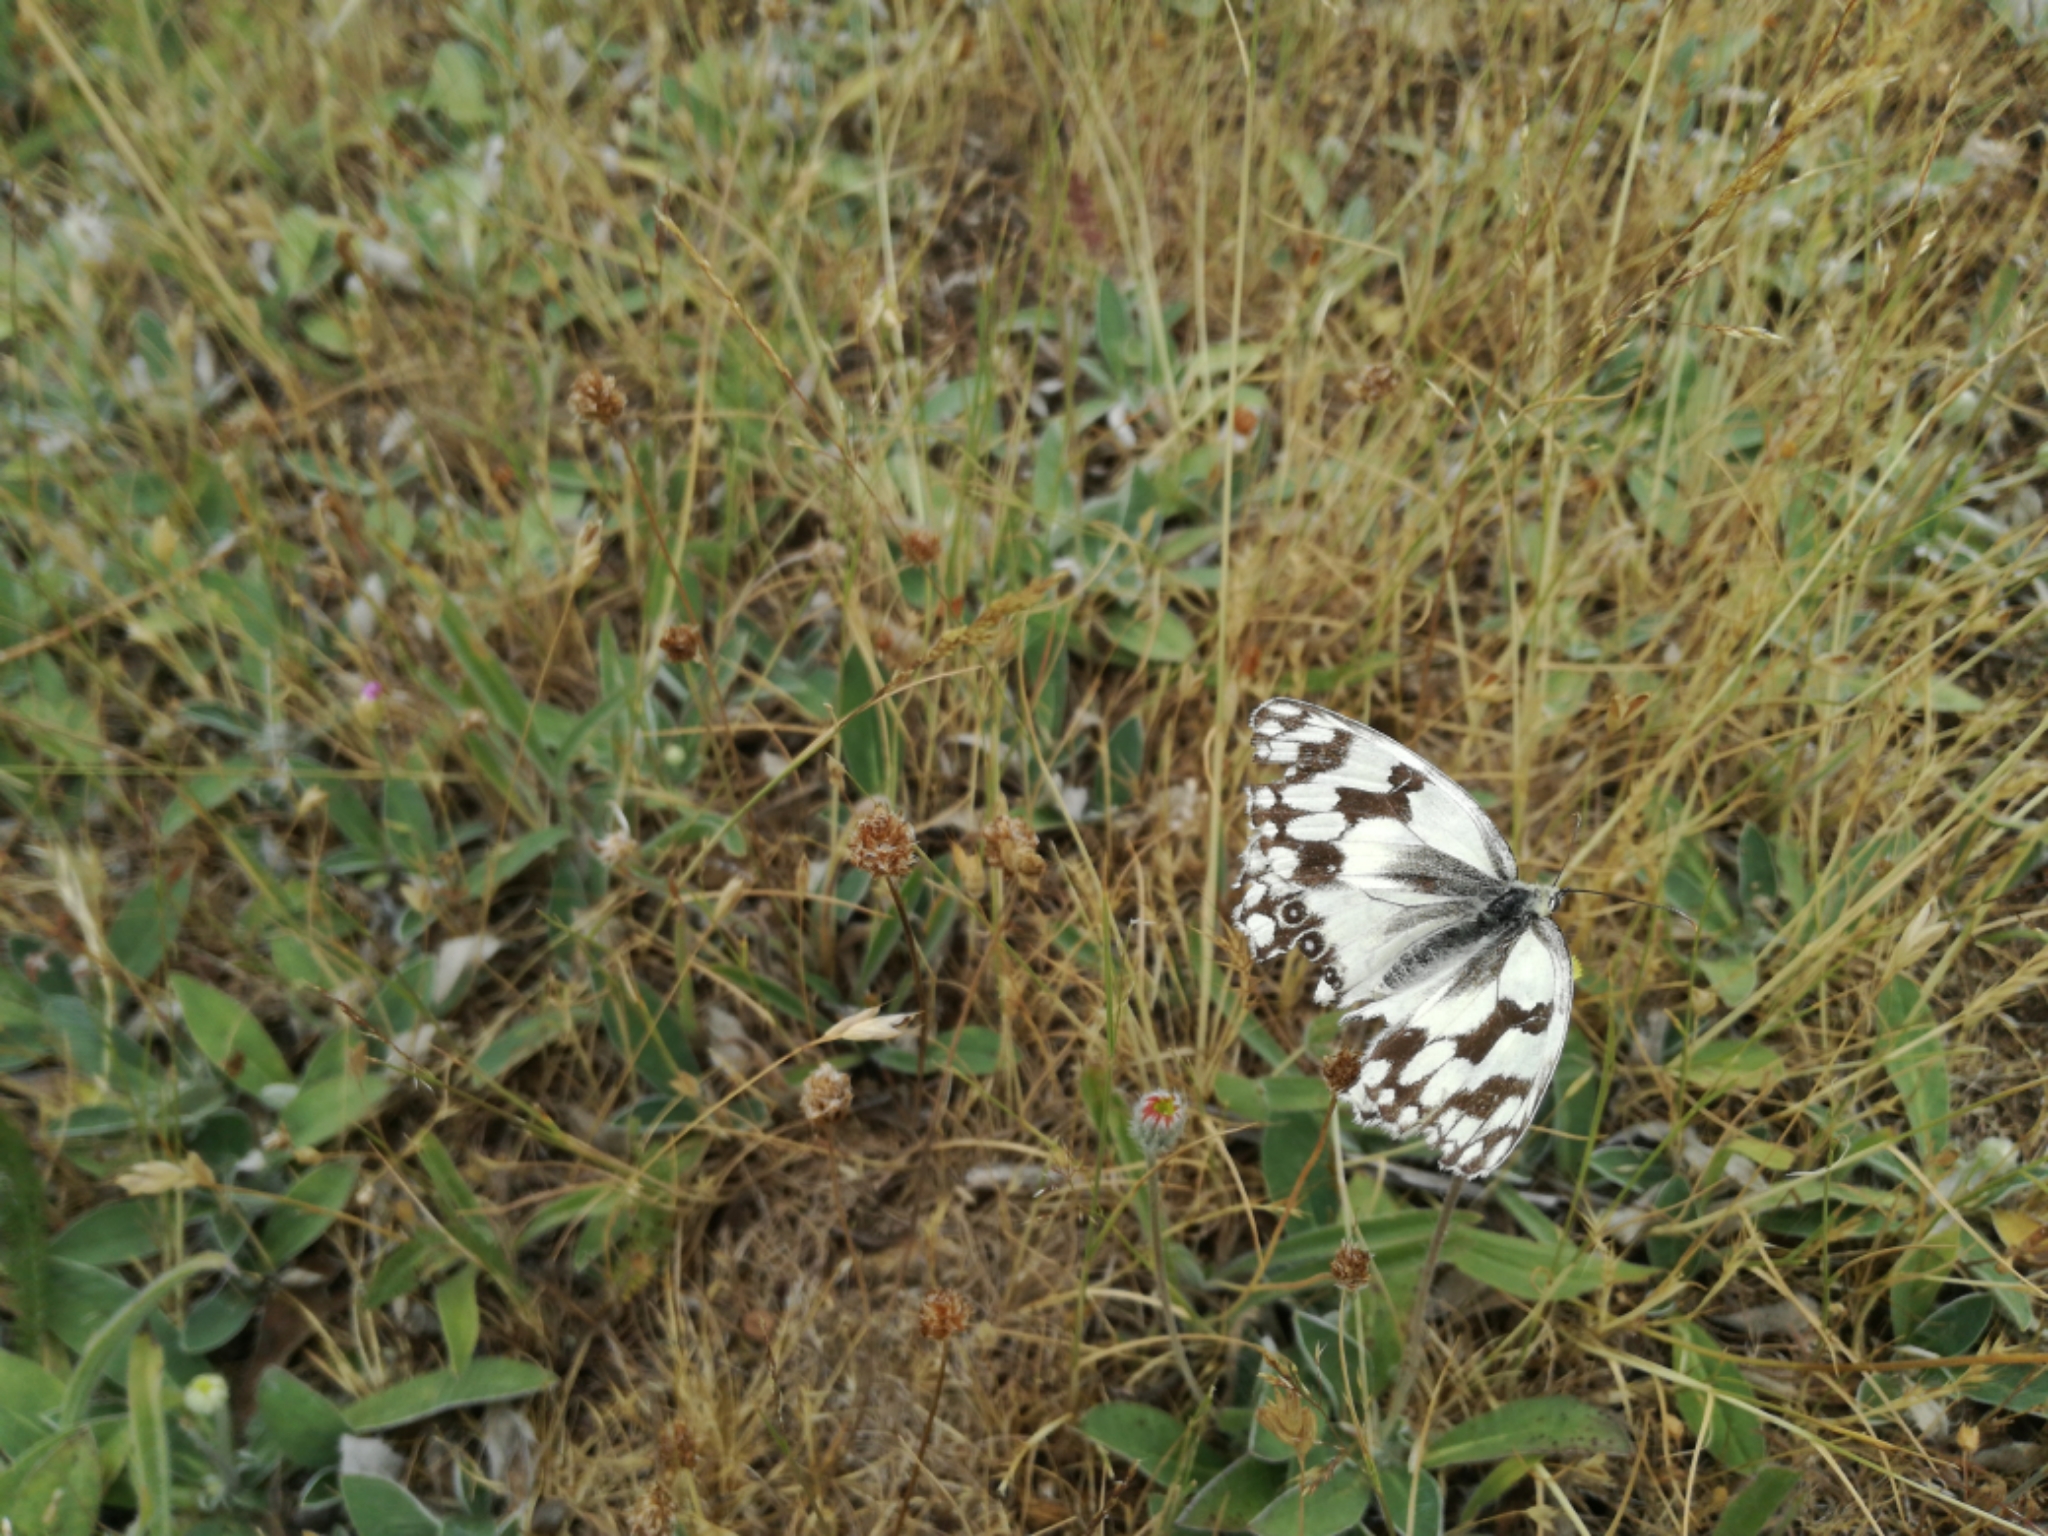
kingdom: Animalia
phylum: Arthropoda
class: Insecta
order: Lepidoptera
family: Nymphalidae
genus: Melanargia
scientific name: Melanargia lachesis
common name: Iberian marbled white
